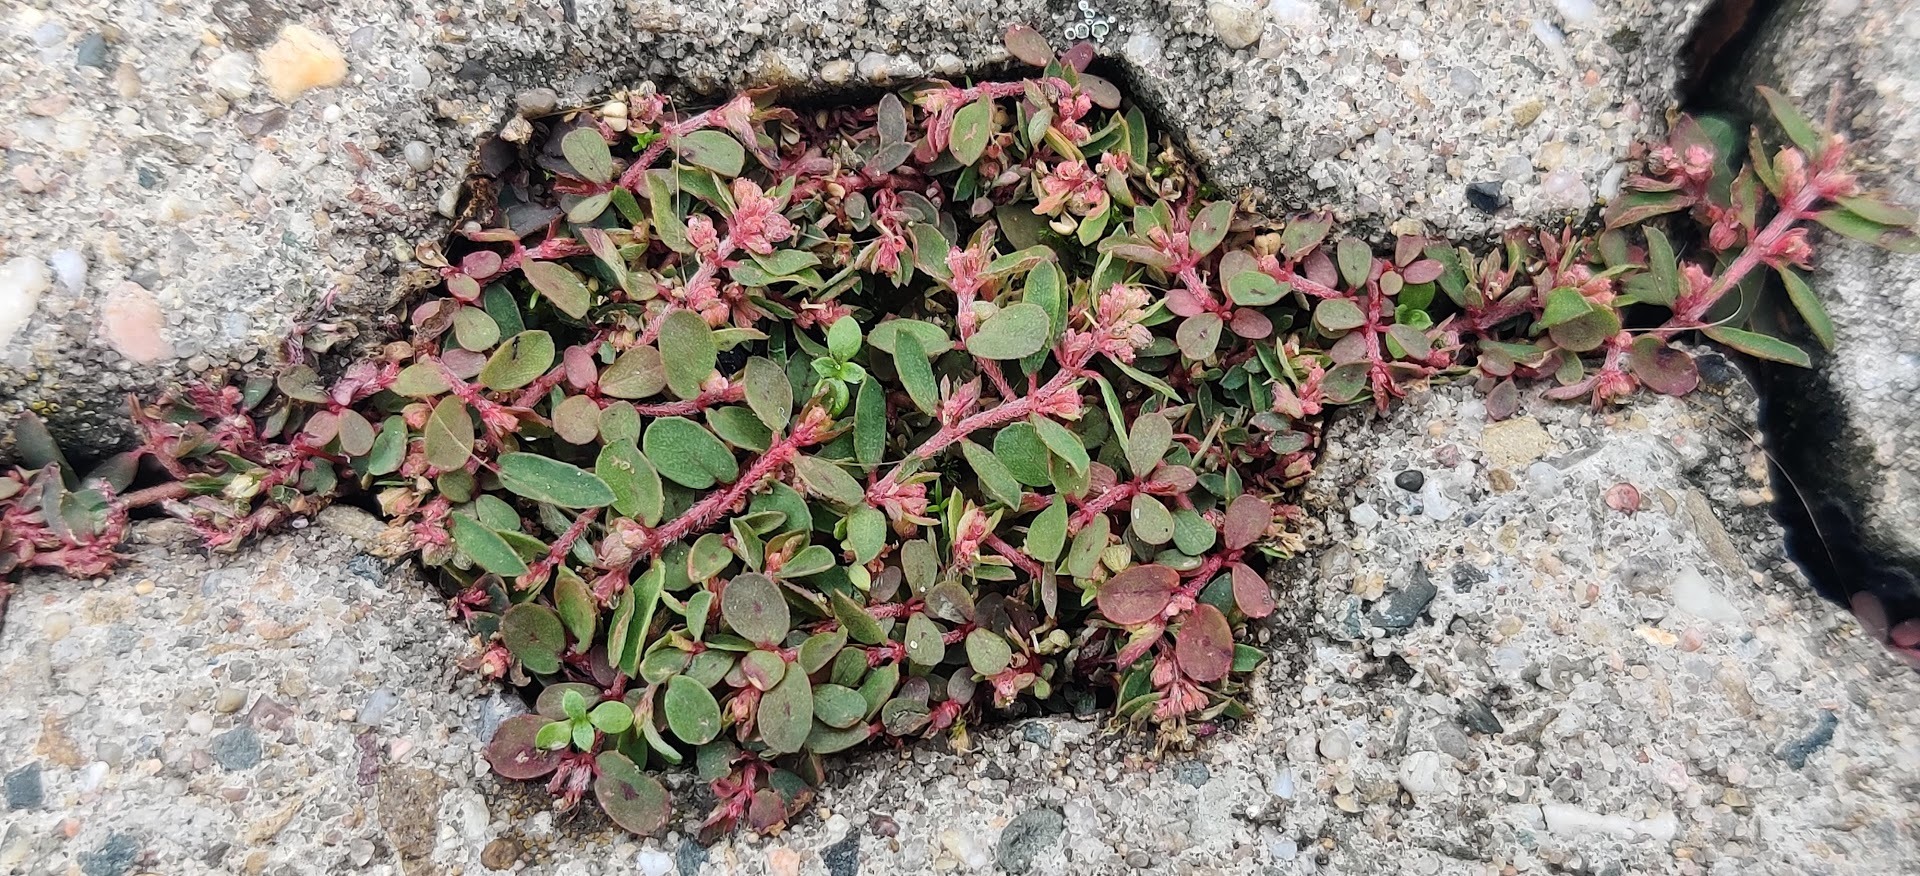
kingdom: Plantae
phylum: Tracheophyta
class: Magnoliopsida
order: Malpighiales
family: Euphorbiaceae
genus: Euphorbia
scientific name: Euphorbia maculata
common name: Spotted spurge
